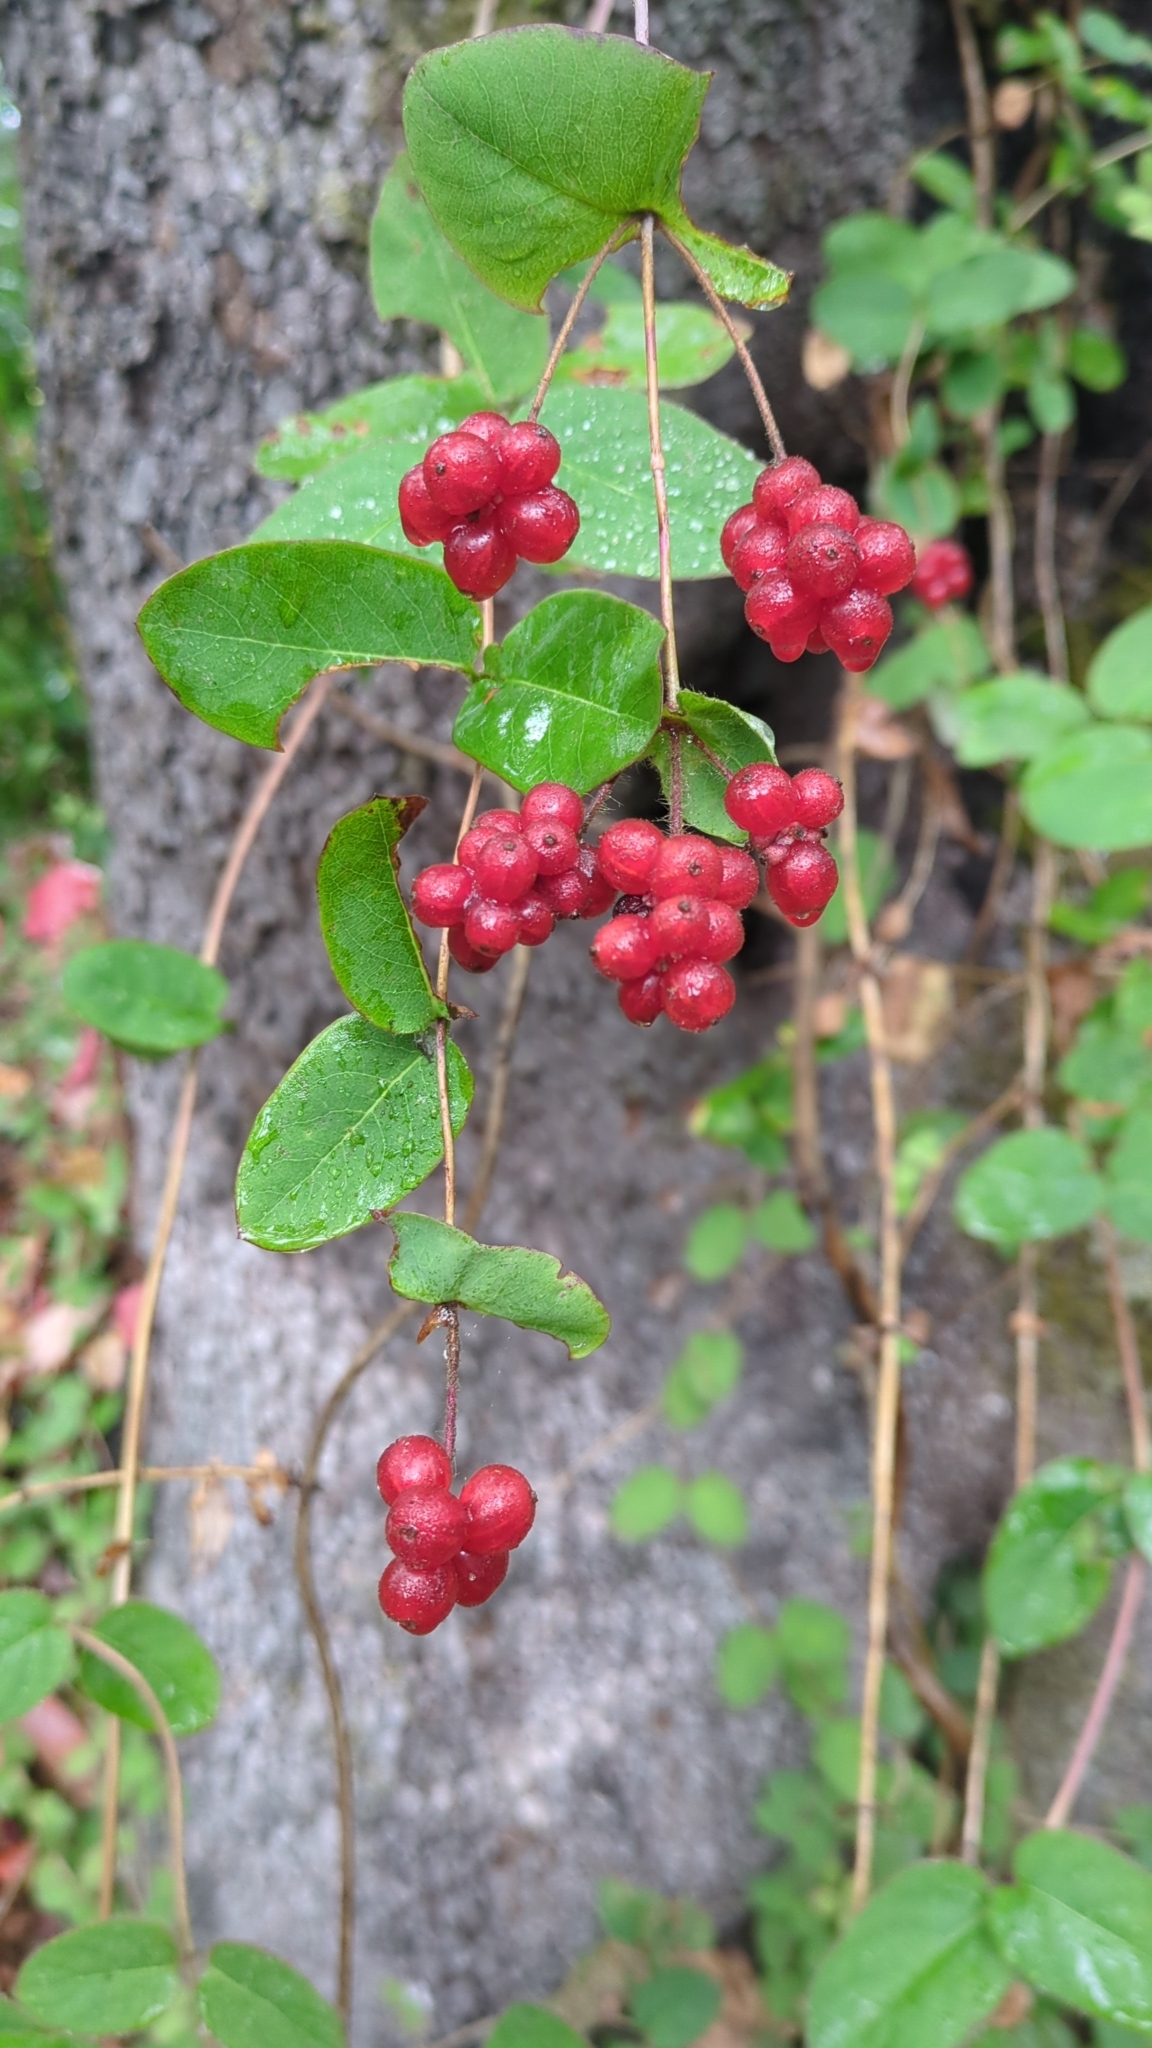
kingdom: Plantae
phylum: Tracheophyta
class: Magnoliopsida
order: Dipsacales
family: Caprifoliaceae
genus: Lonicera
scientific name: Lonicera hispidula
